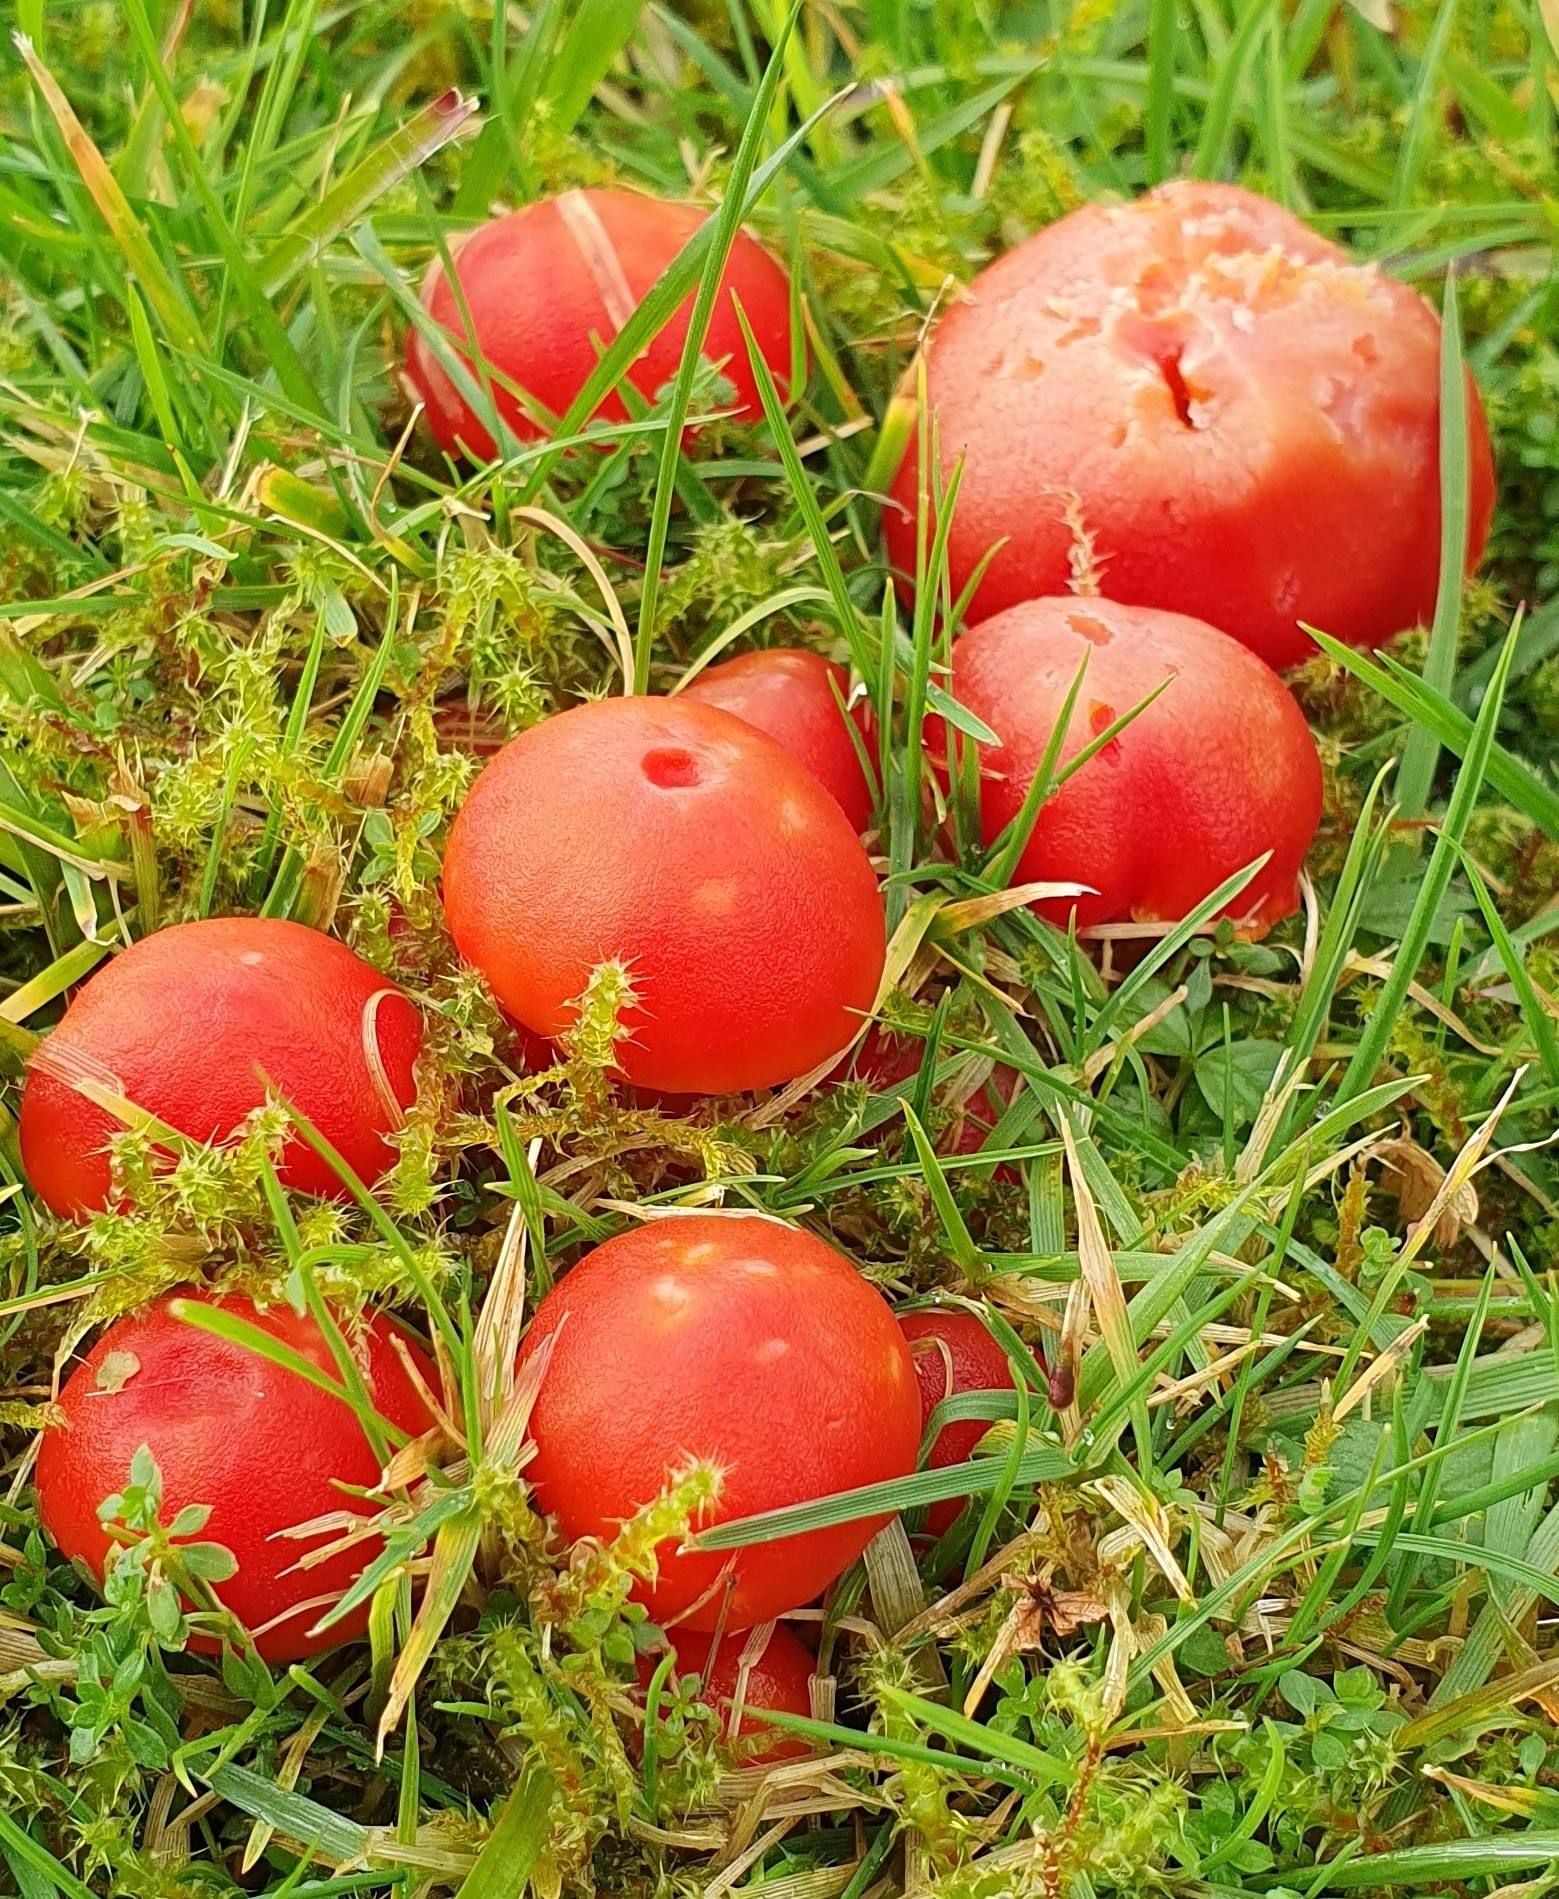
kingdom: Fungi
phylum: Basidiomycota
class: Agaricomycetes
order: Agaricales
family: Hygrophoraceae
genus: Hygrocybe
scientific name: Hygrocybe coccinea
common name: Scarlet hood
